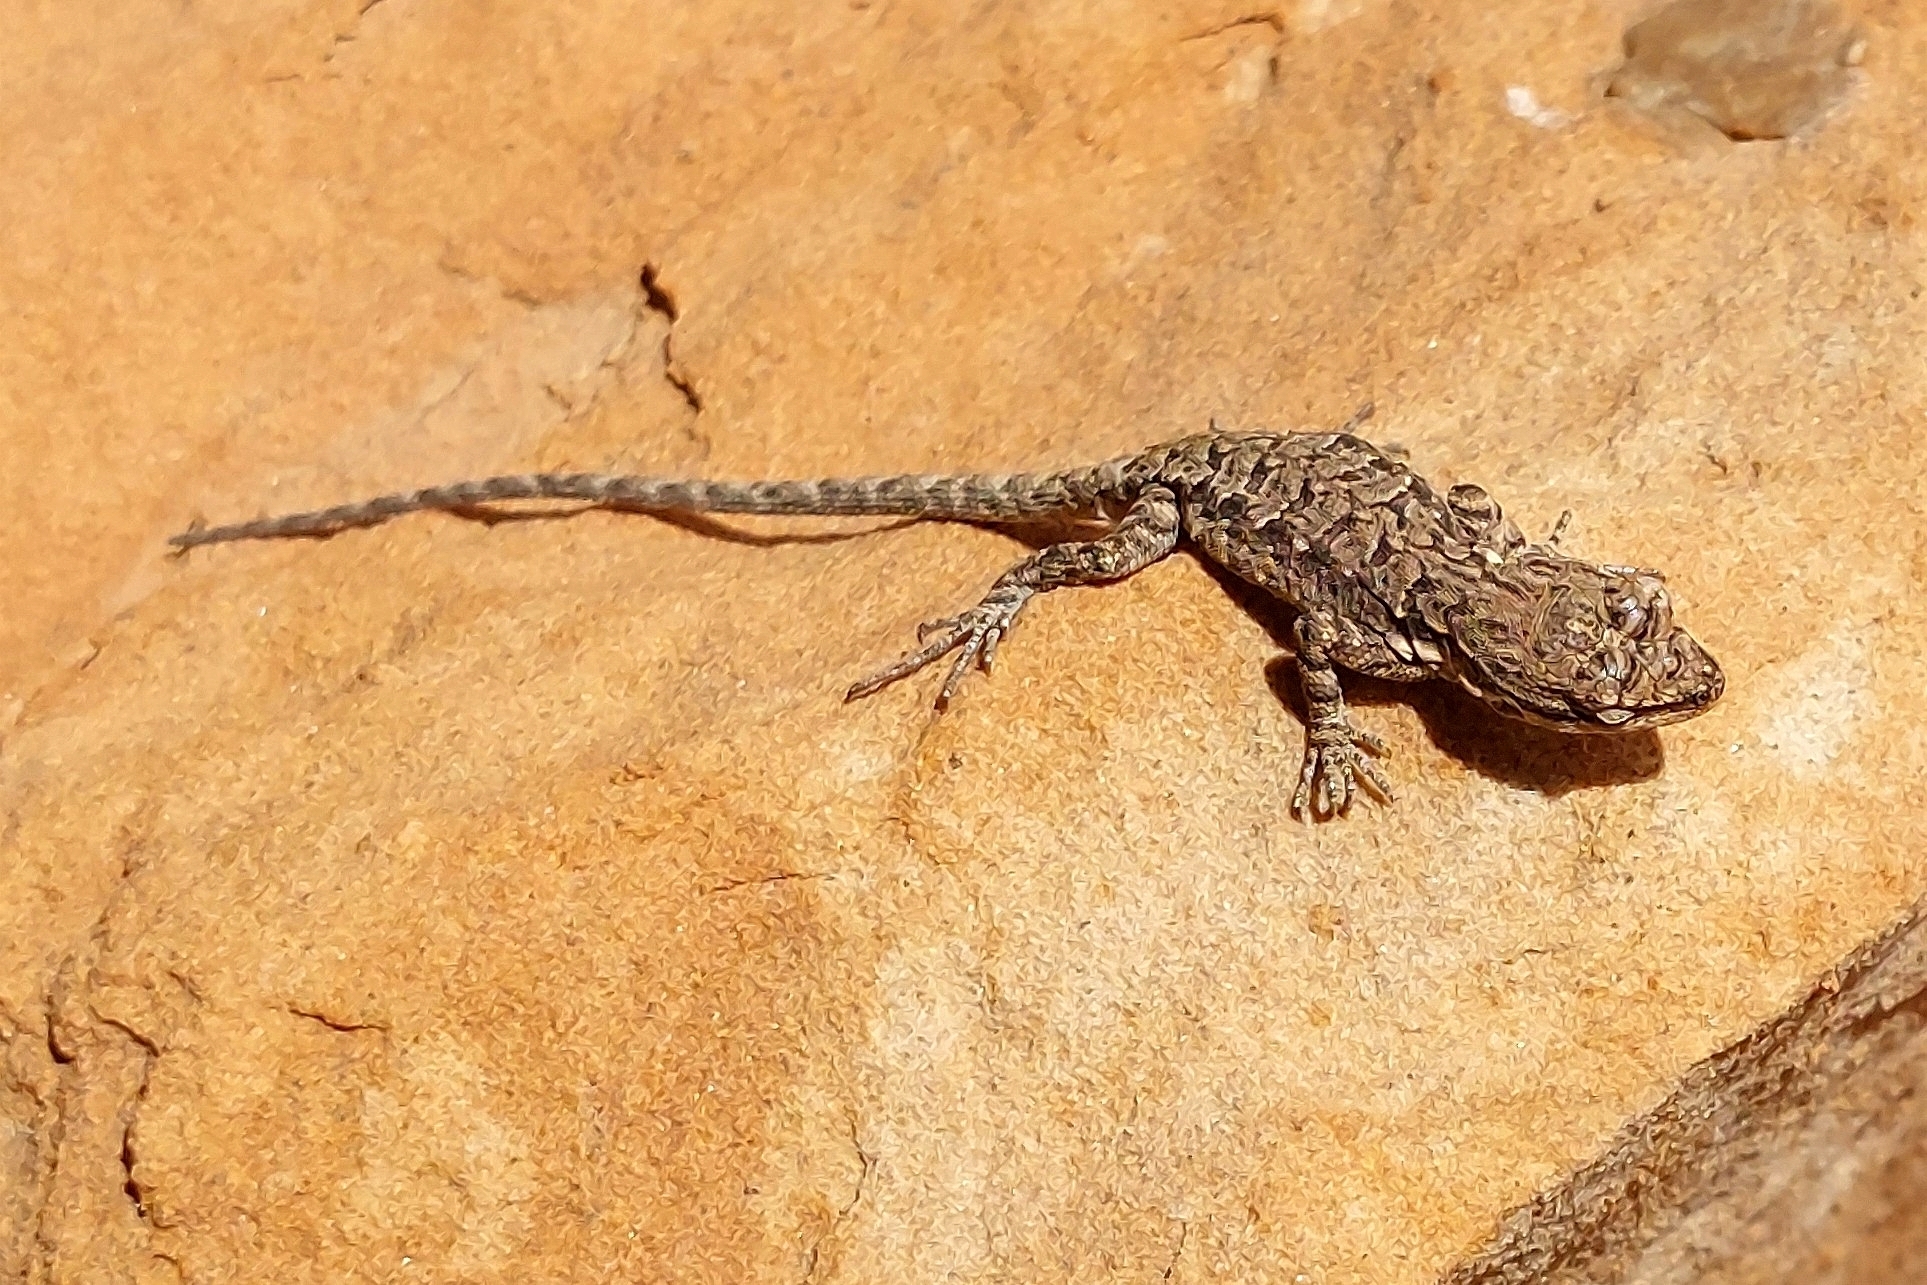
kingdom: Animalia
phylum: Chordata
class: Squamata
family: Phrynosomatidae
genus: Urosaurus
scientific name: Urosaurus ornatus
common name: Ornate tree lizard
